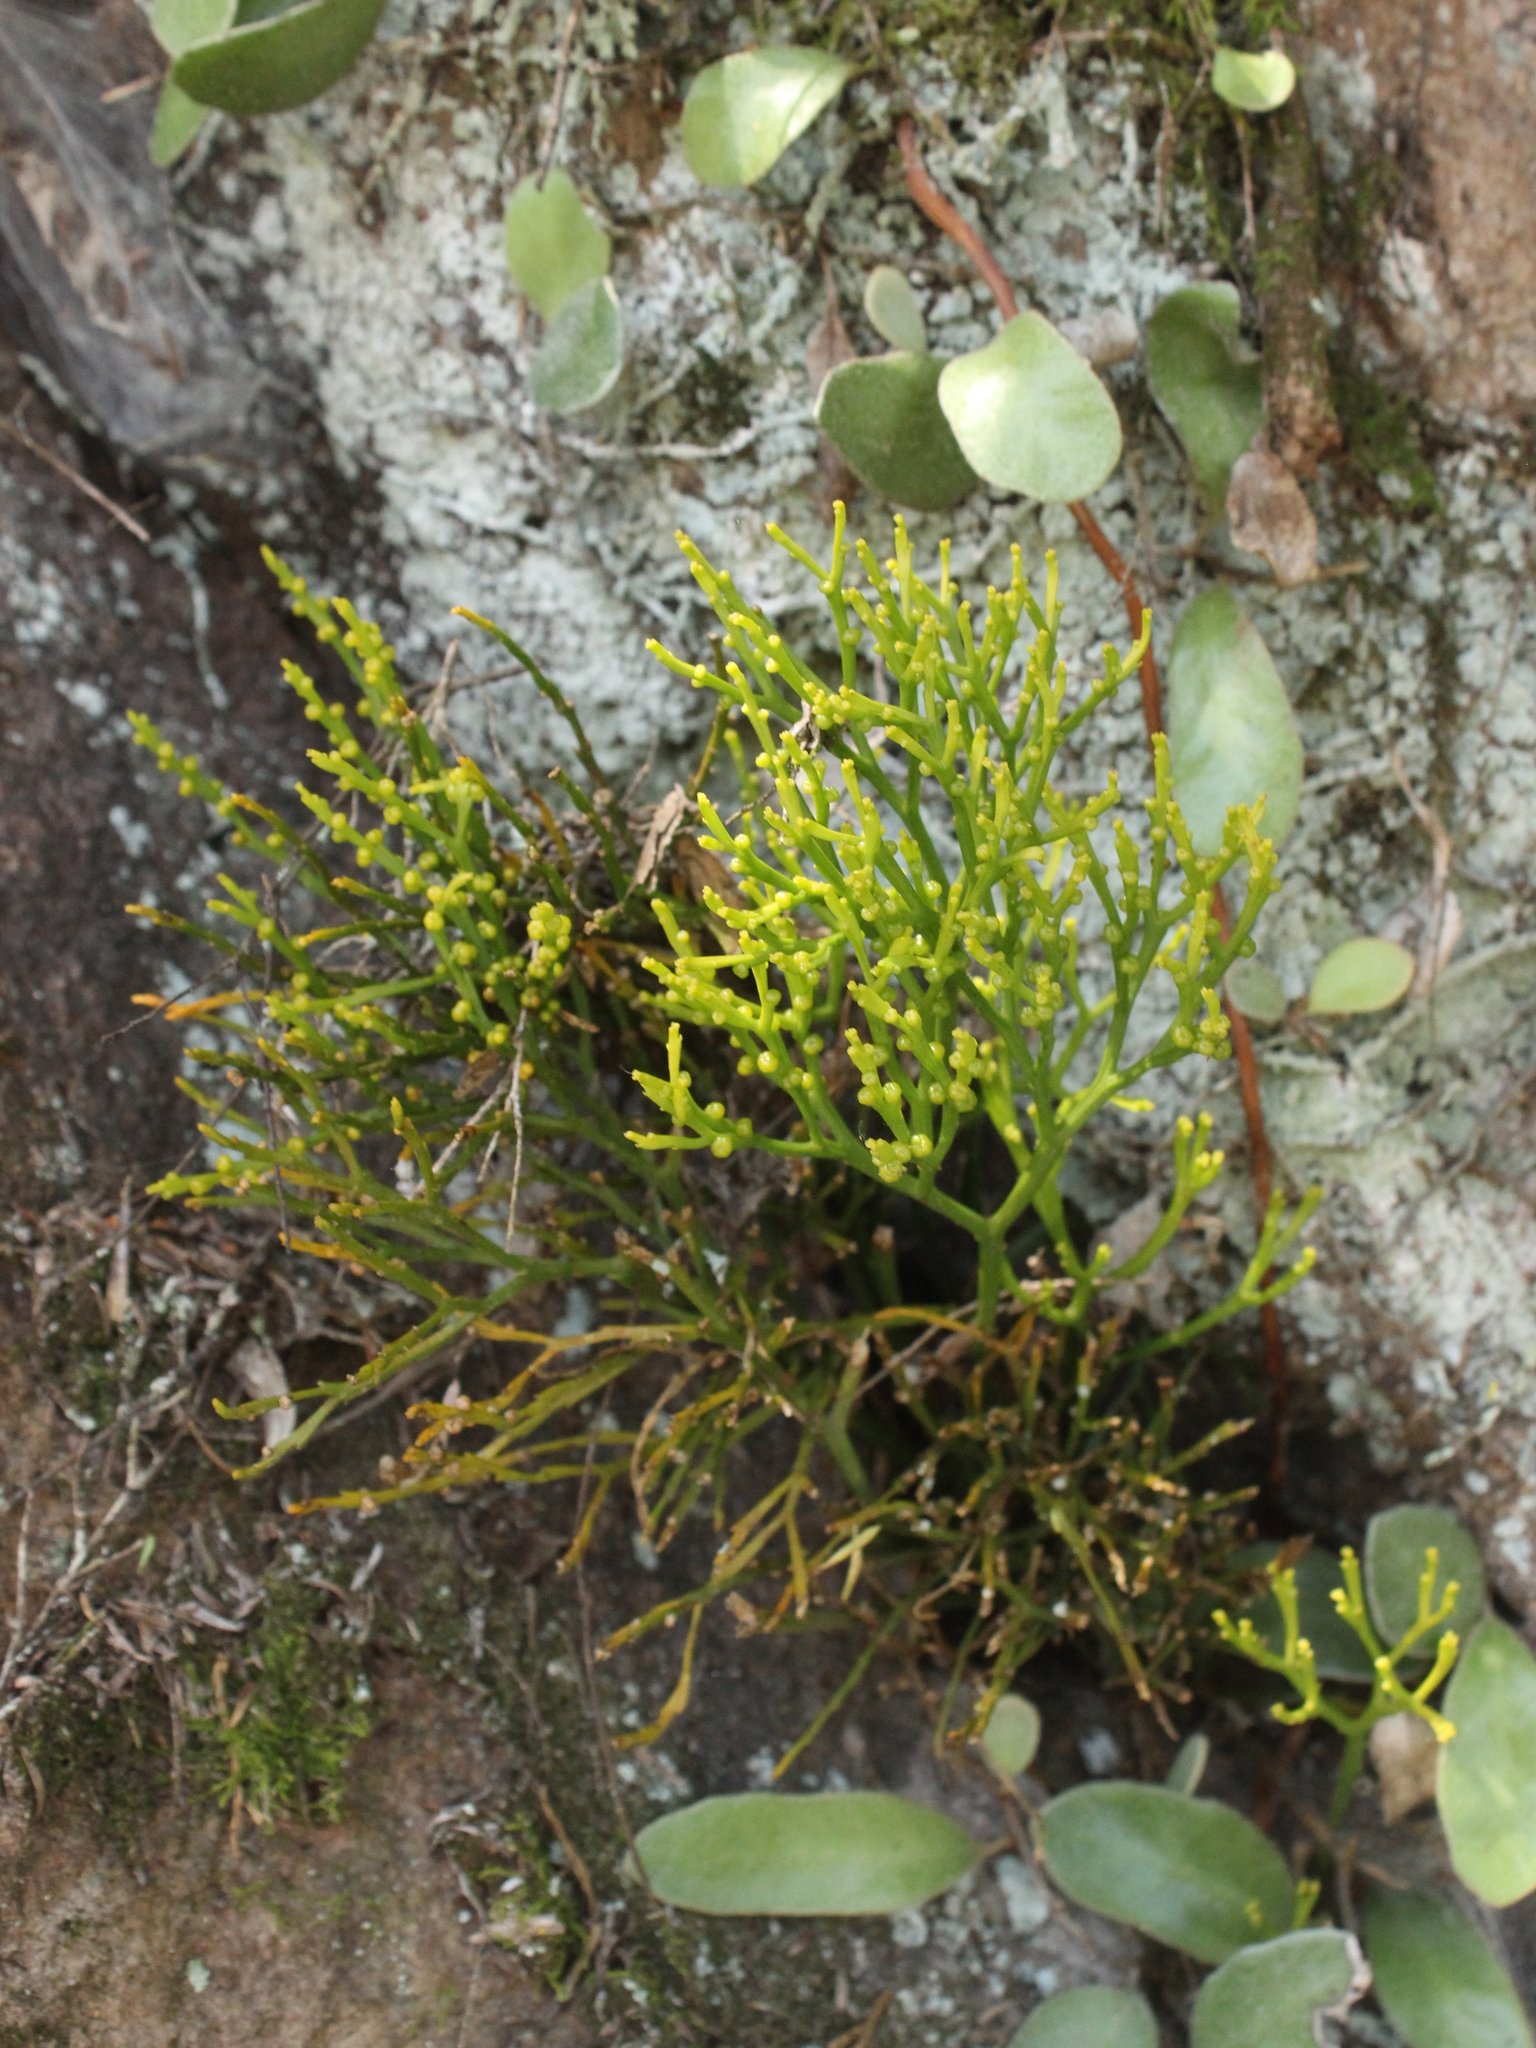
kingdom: Plantae
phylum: Tracheophyta
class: Polypodiopsida
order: Psilotales
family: Psilotaceae
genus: Psilotum
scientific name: Psilotum nudum
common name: Skeleton fork fern
